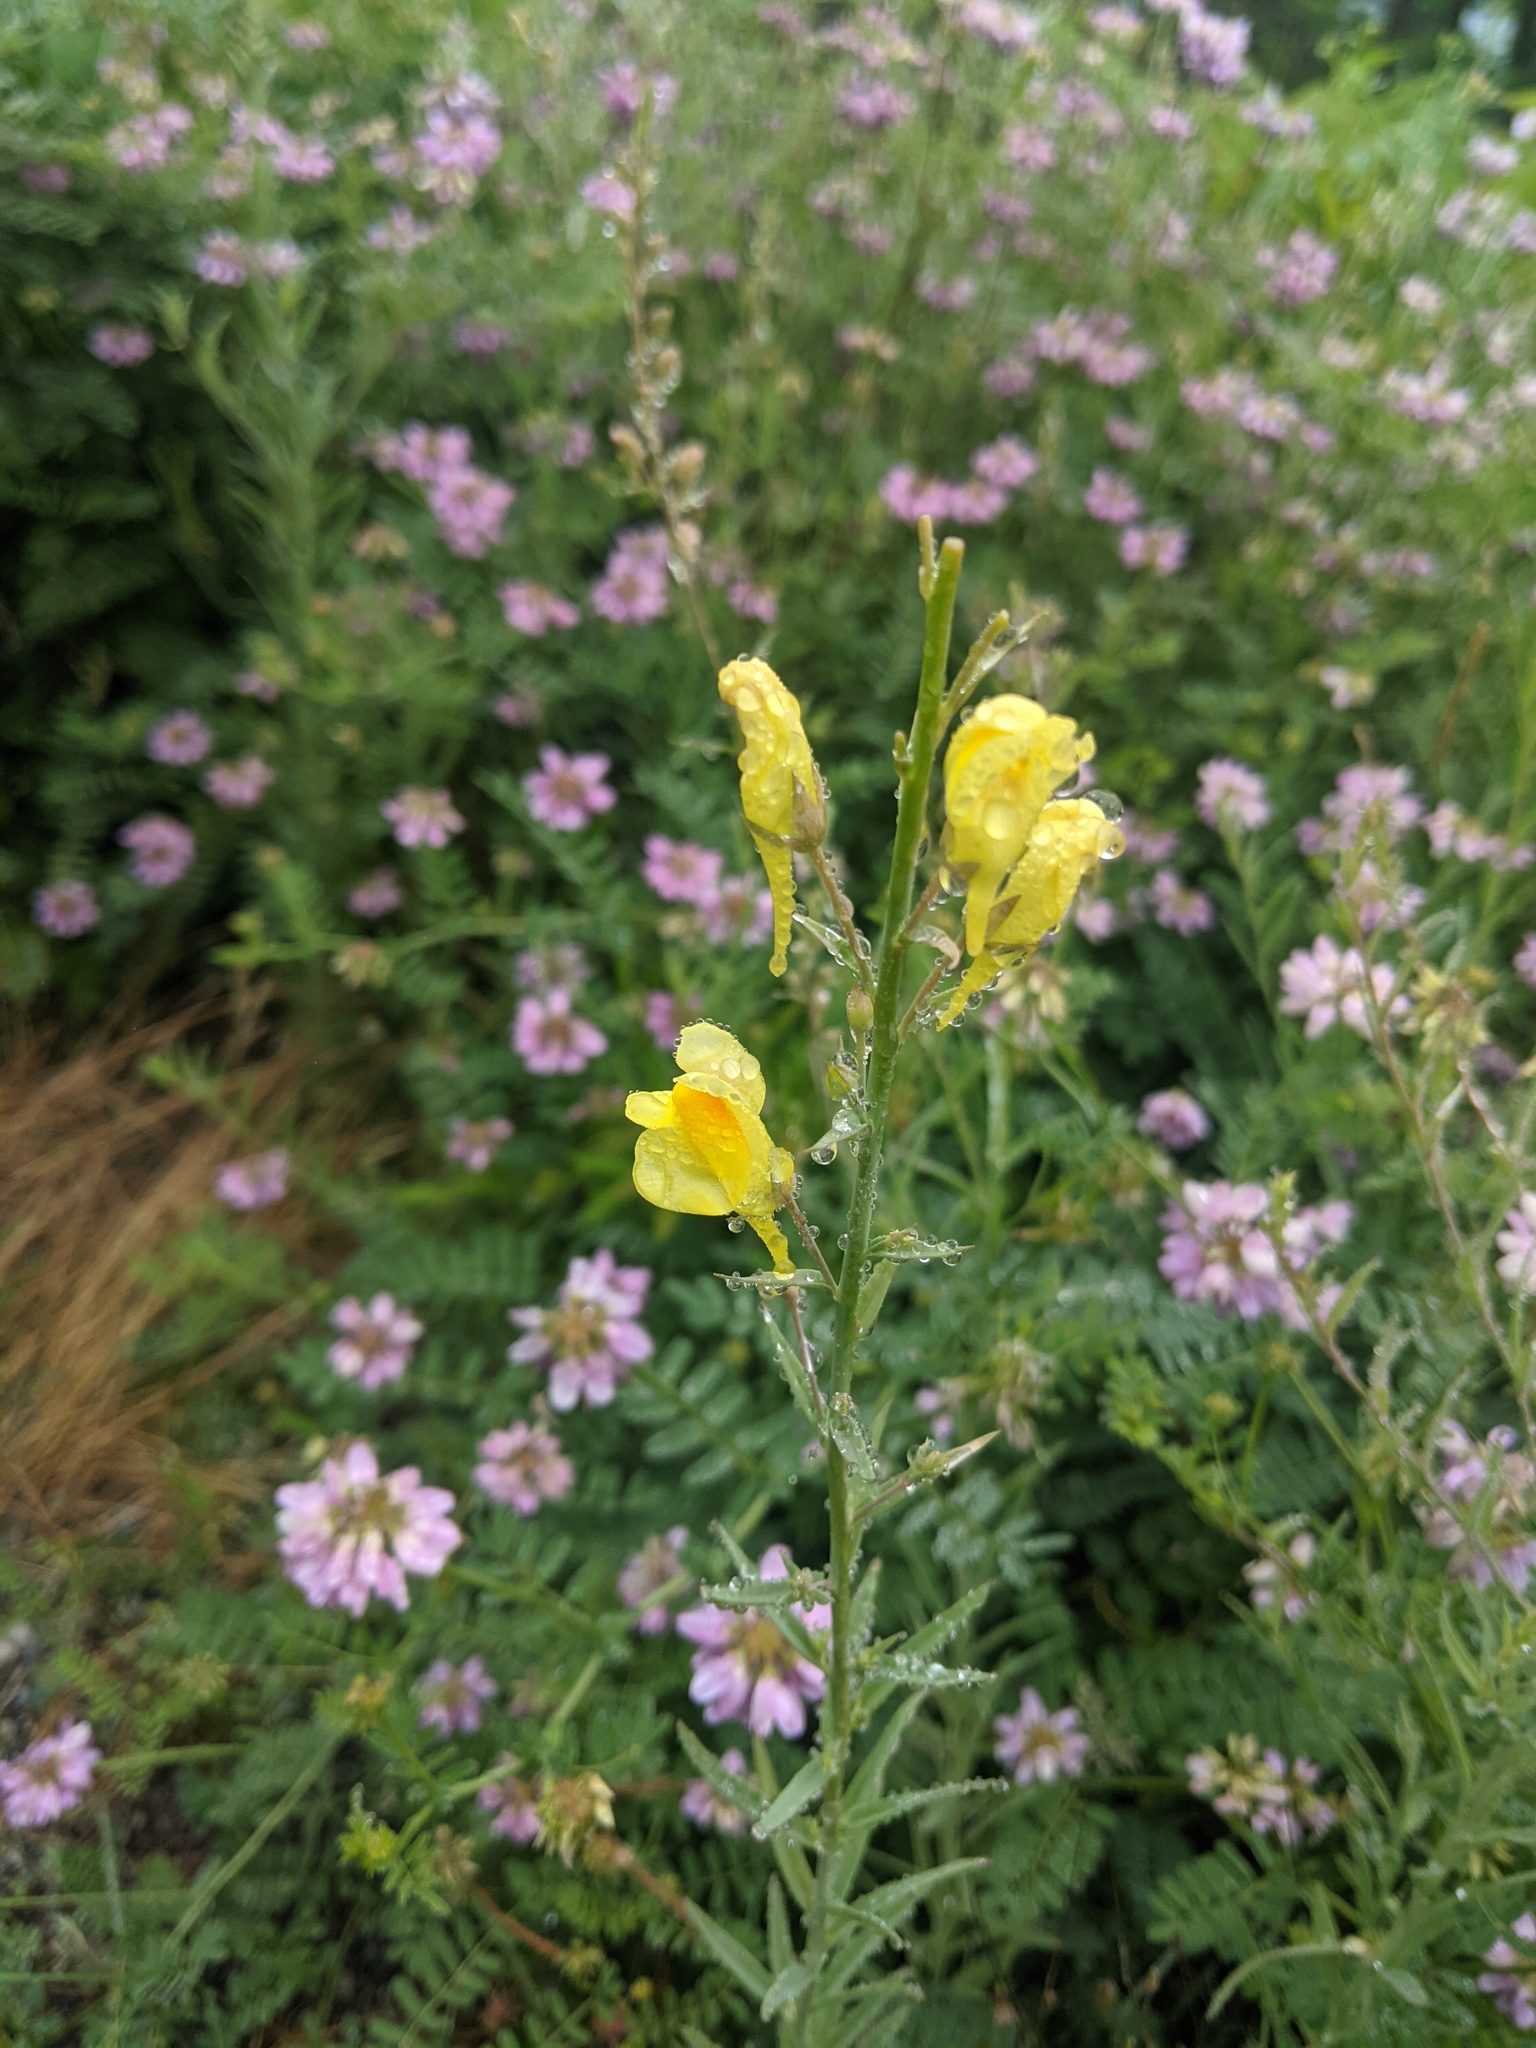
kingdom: Plantae
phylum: Tracheophyta
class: Magnoliopsida
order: Lamiales
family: Plantaginaceae
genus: Linaria
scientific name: Linaria vulgaris
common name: Butter and eggs
